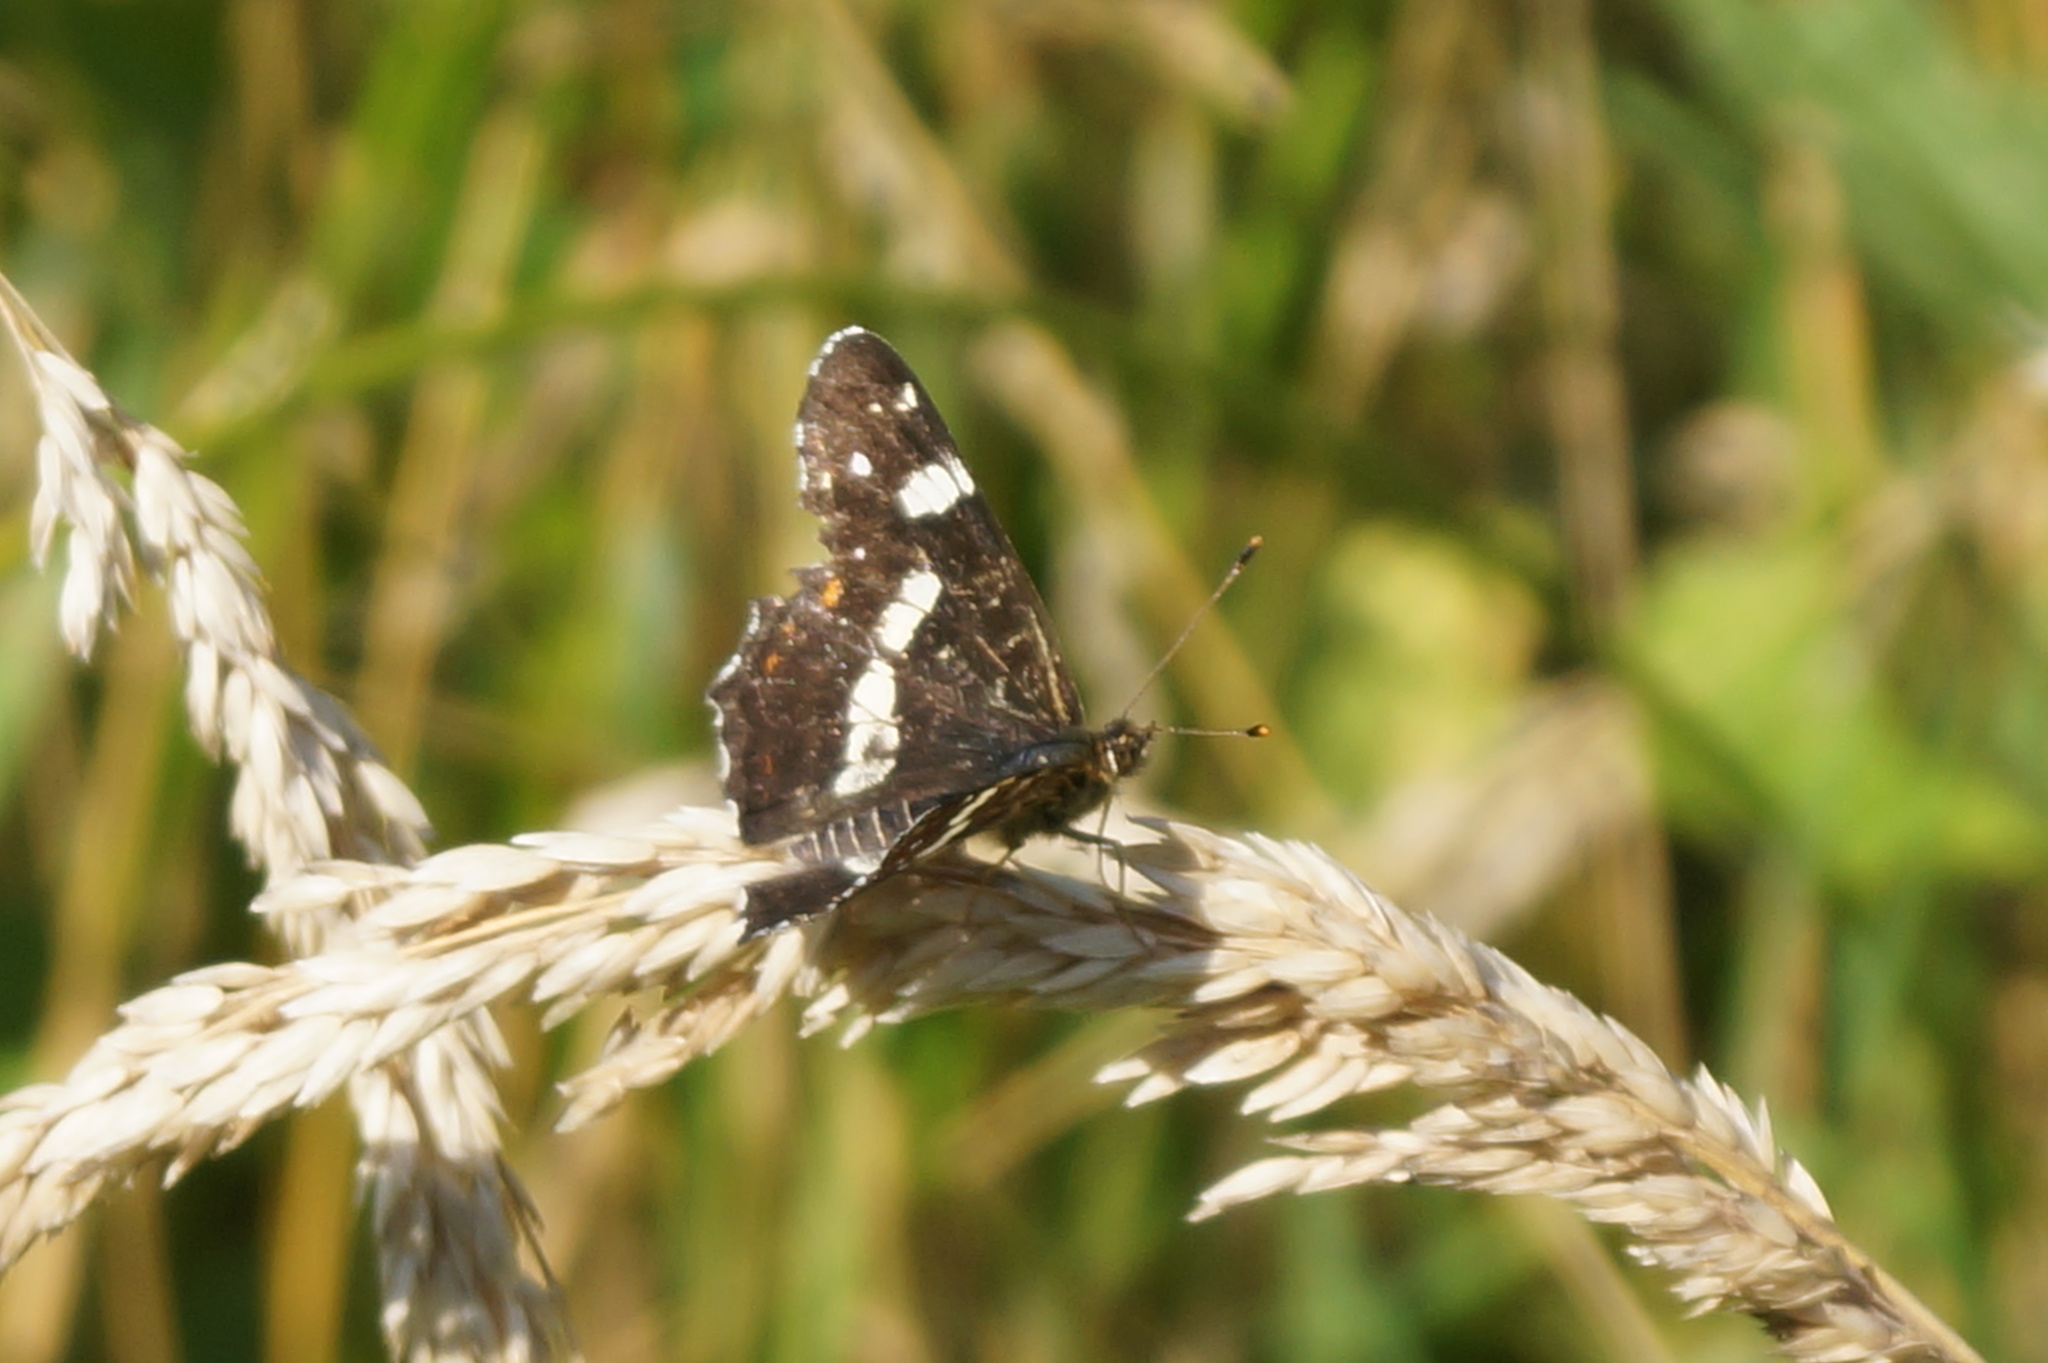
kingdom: Animalia
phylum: Arthropoda
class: Insecta
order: Lepidoptera
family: Nymphalidae
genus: Araschnia
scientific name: Araschnia levana
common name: Map butterfly
